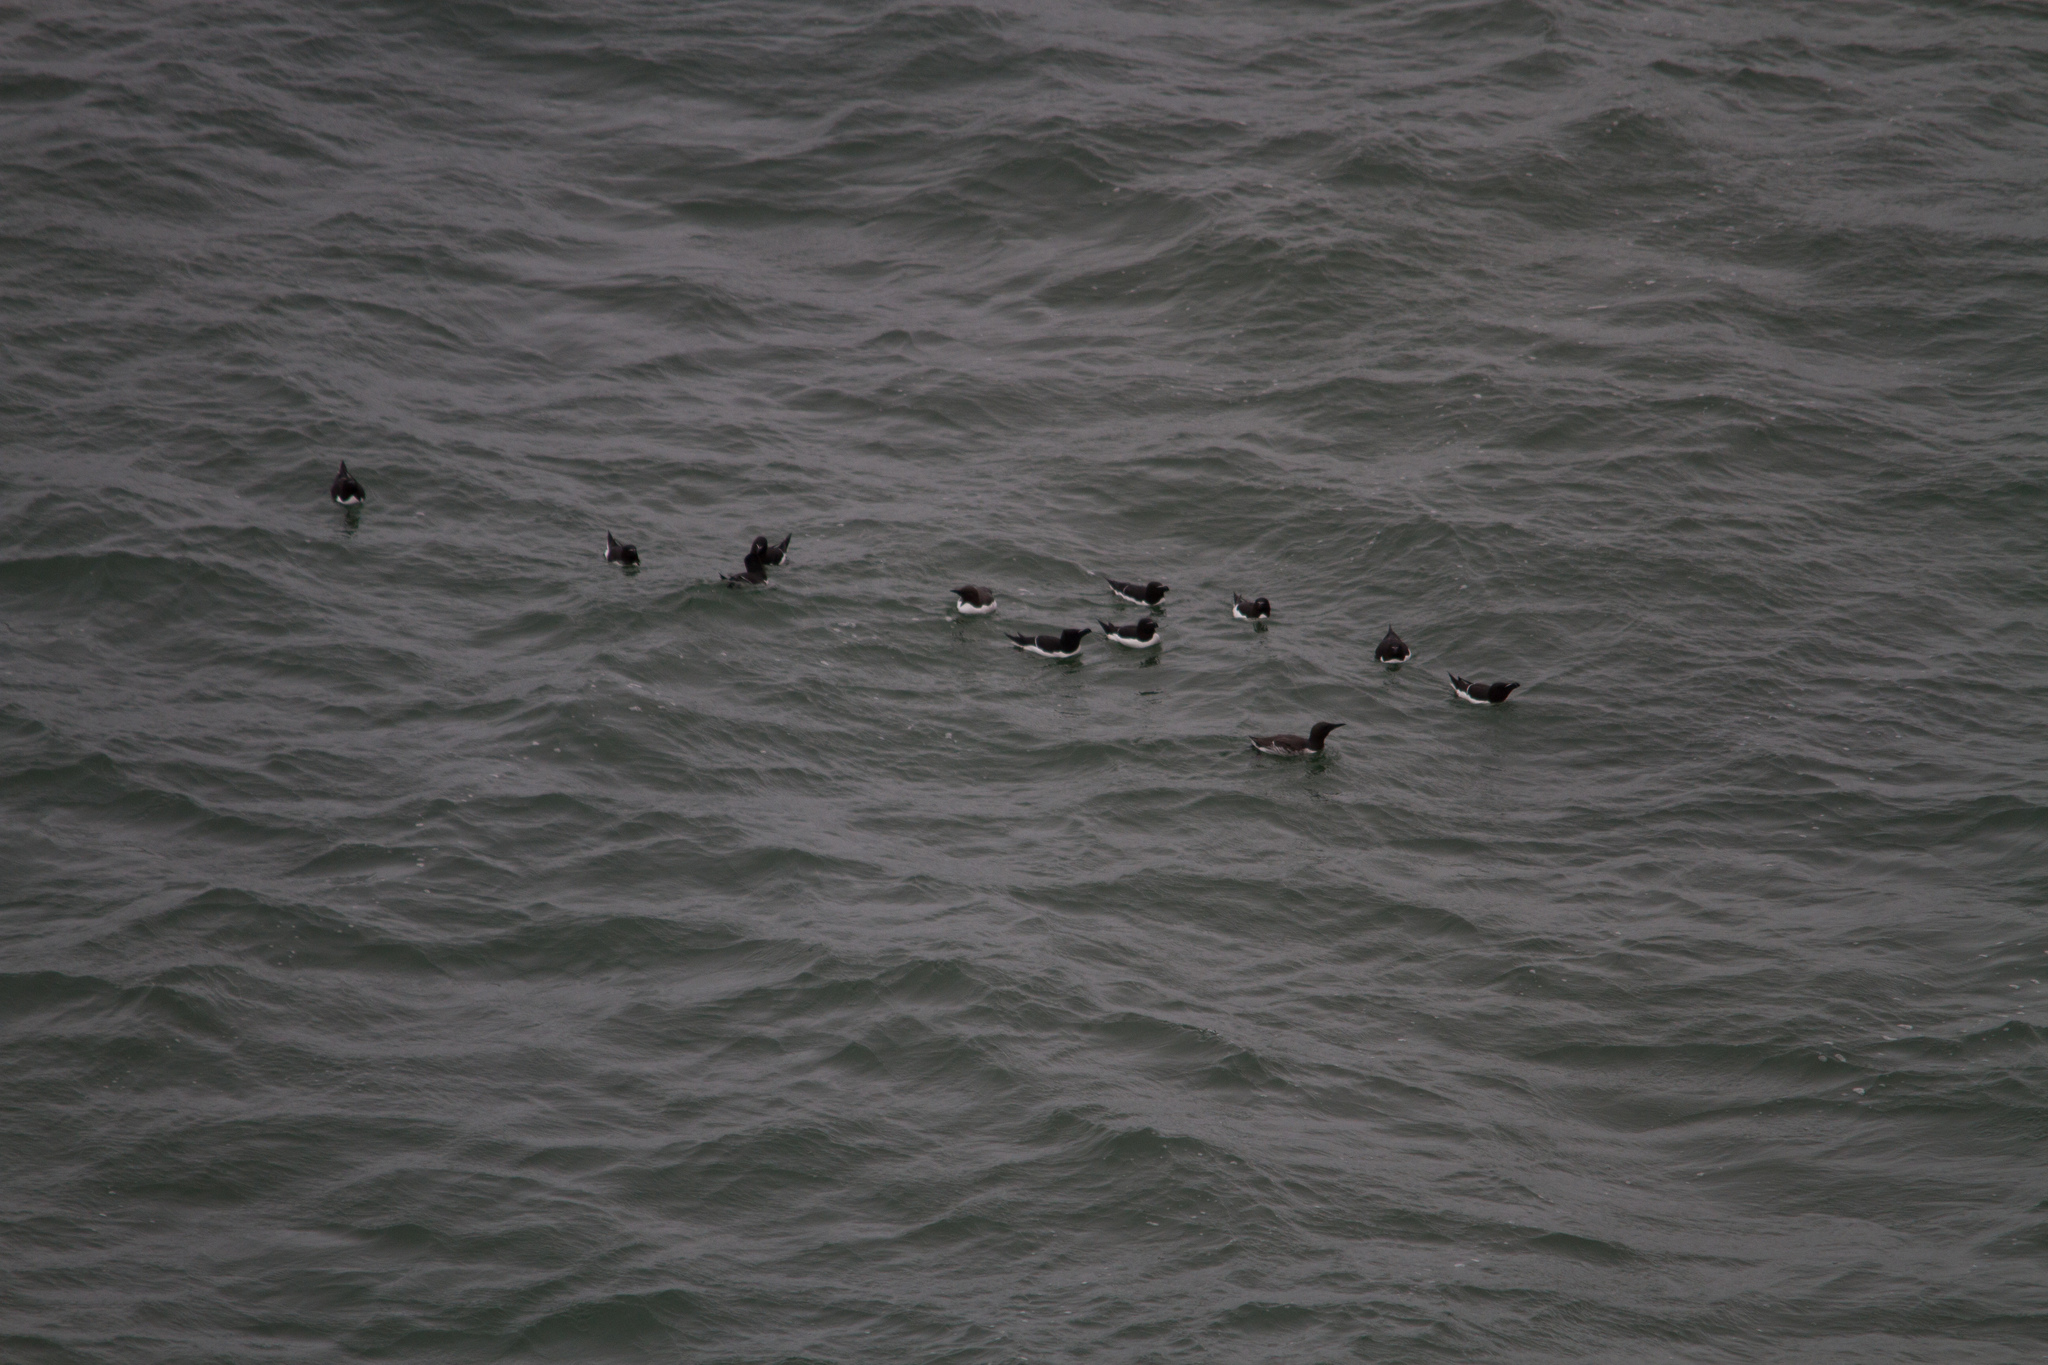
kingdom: Animalia
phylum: Chordata
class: Aves
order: Charadriiformes
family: Alcidae
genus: Alca
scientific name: Alca torda
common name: Razorbill
